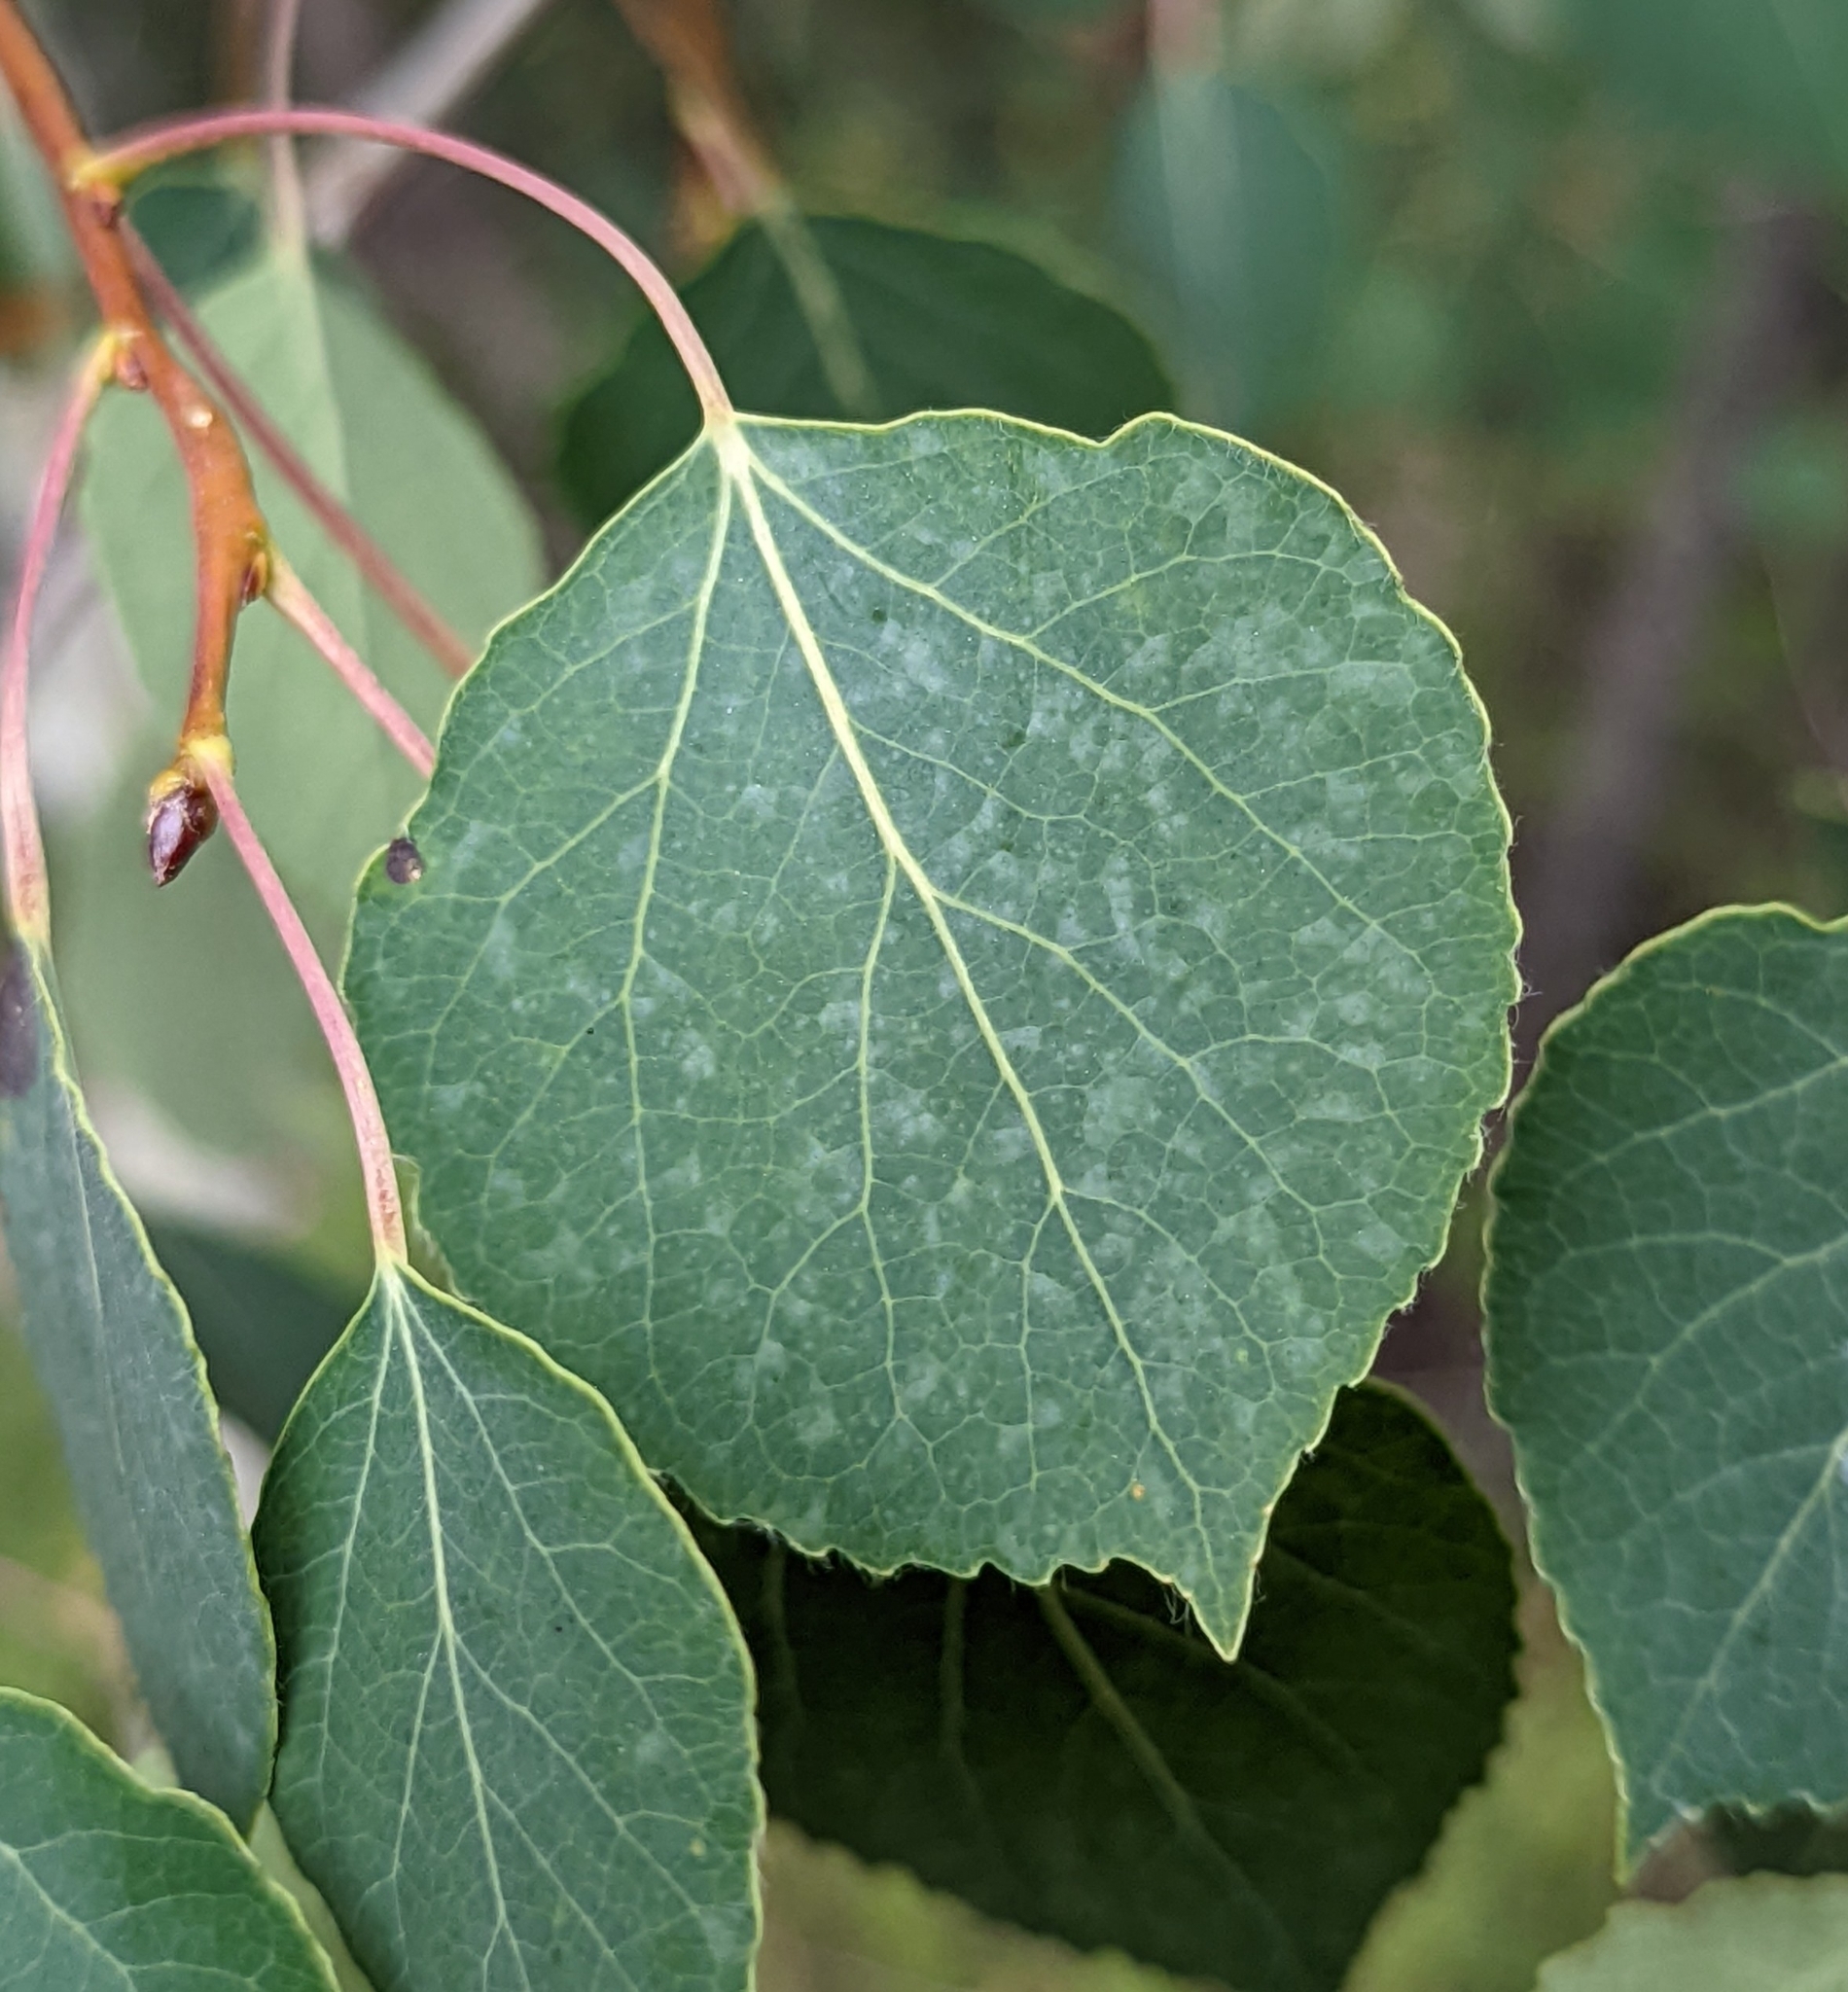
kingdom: Plantae
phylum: Tracheophyta
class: Magnoliopsida
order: Malpighiales
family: Salicaceae
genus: Populus
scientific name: Populus tremuloides
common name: Quaking aspen
